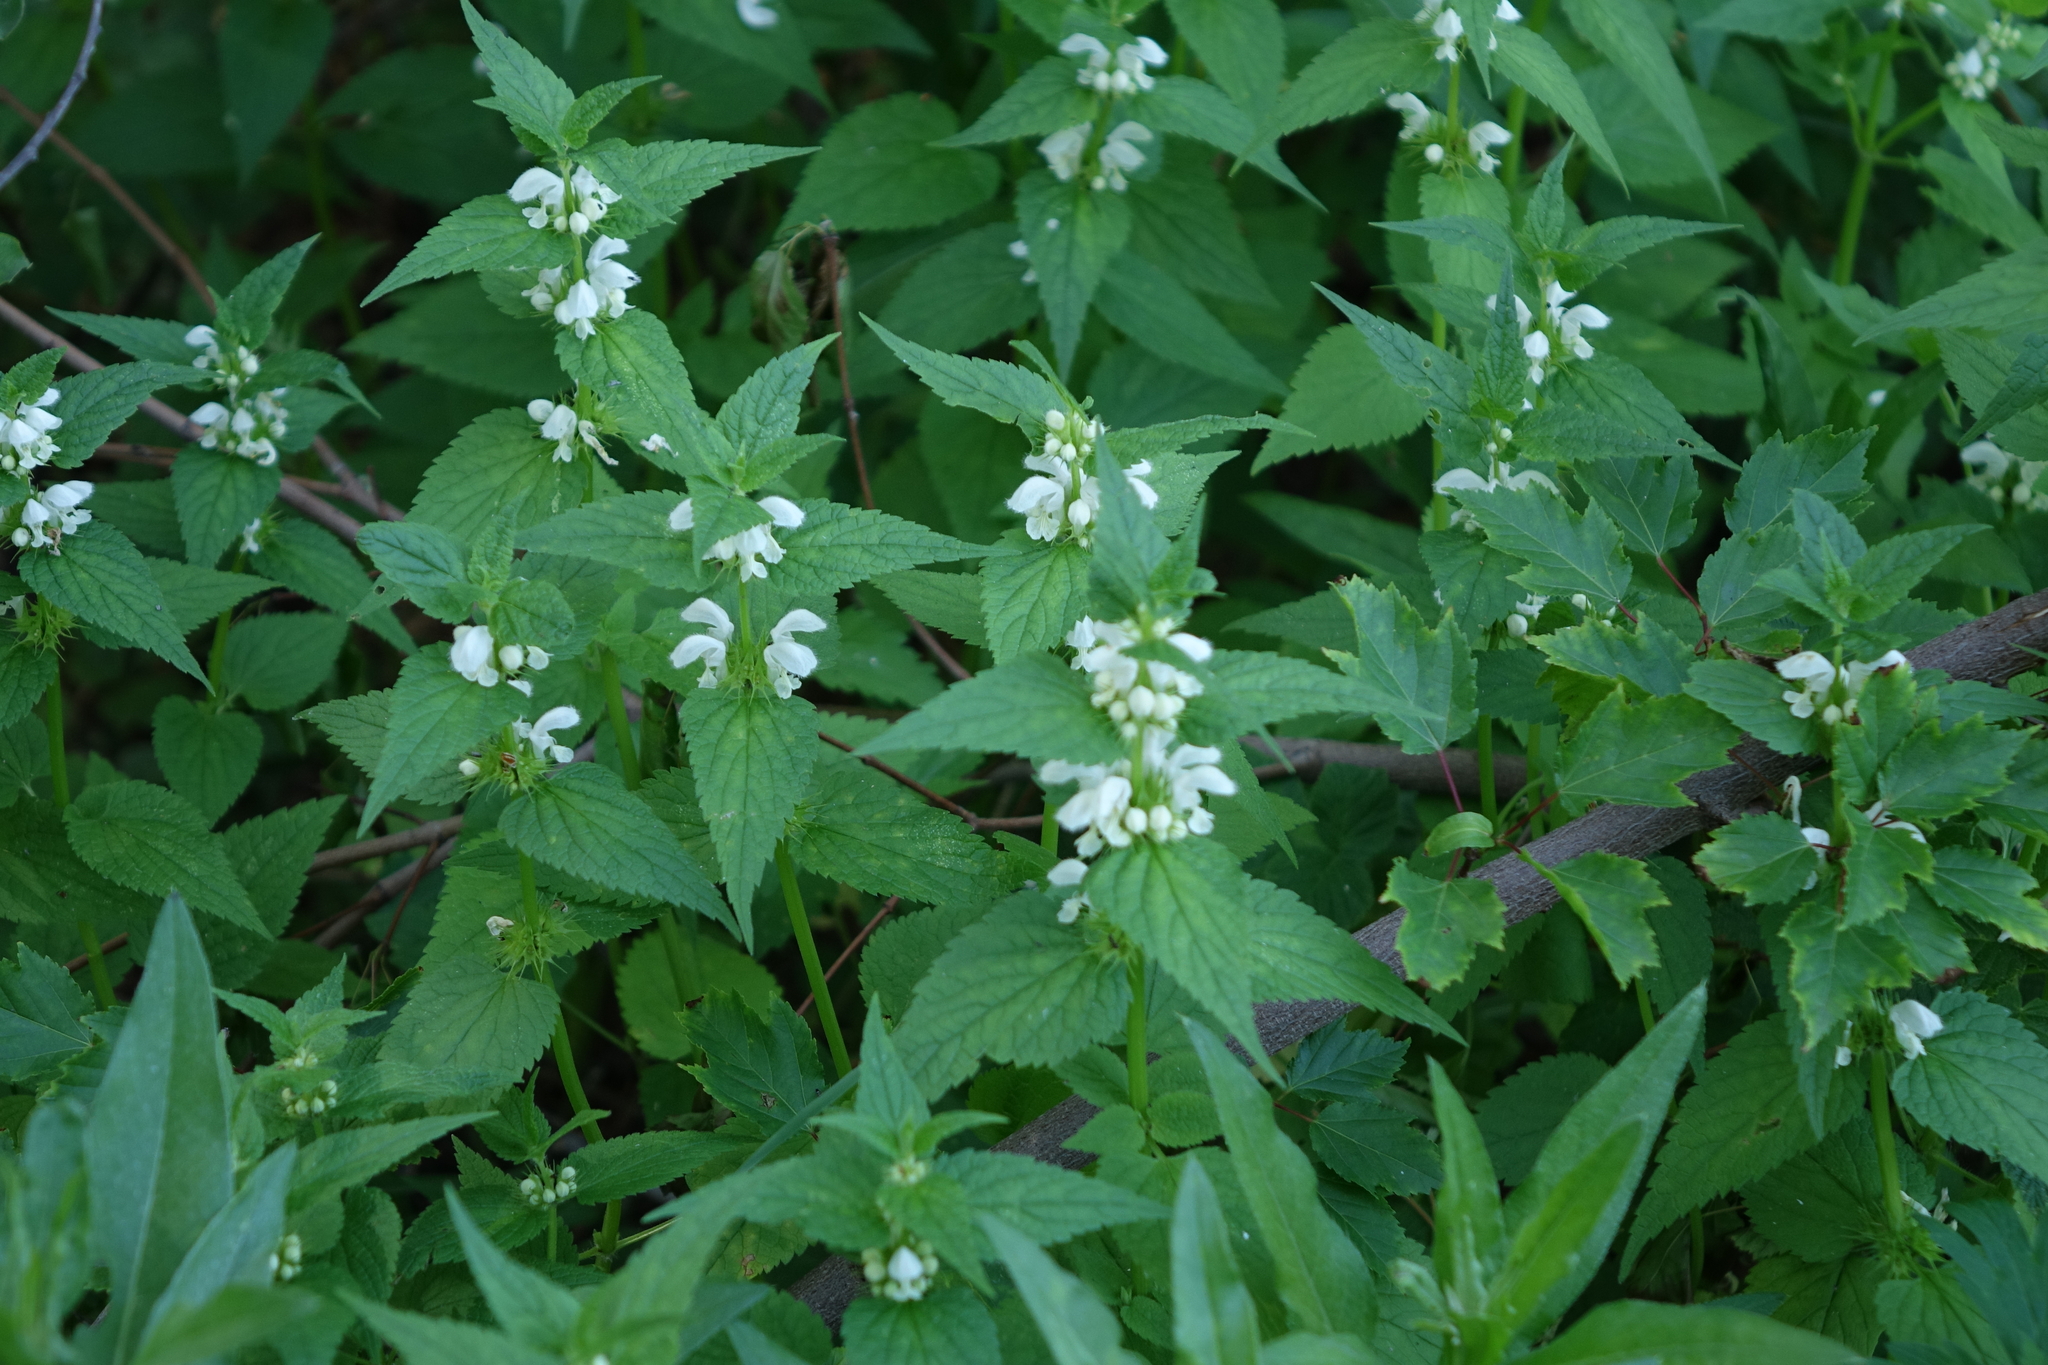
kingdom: Plantae
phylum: Tracheophyta
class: Magnoliopsida
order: Lamiales
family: Lamiaceae
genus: Lamium
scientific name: Lamium album
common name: White dead-nettle
